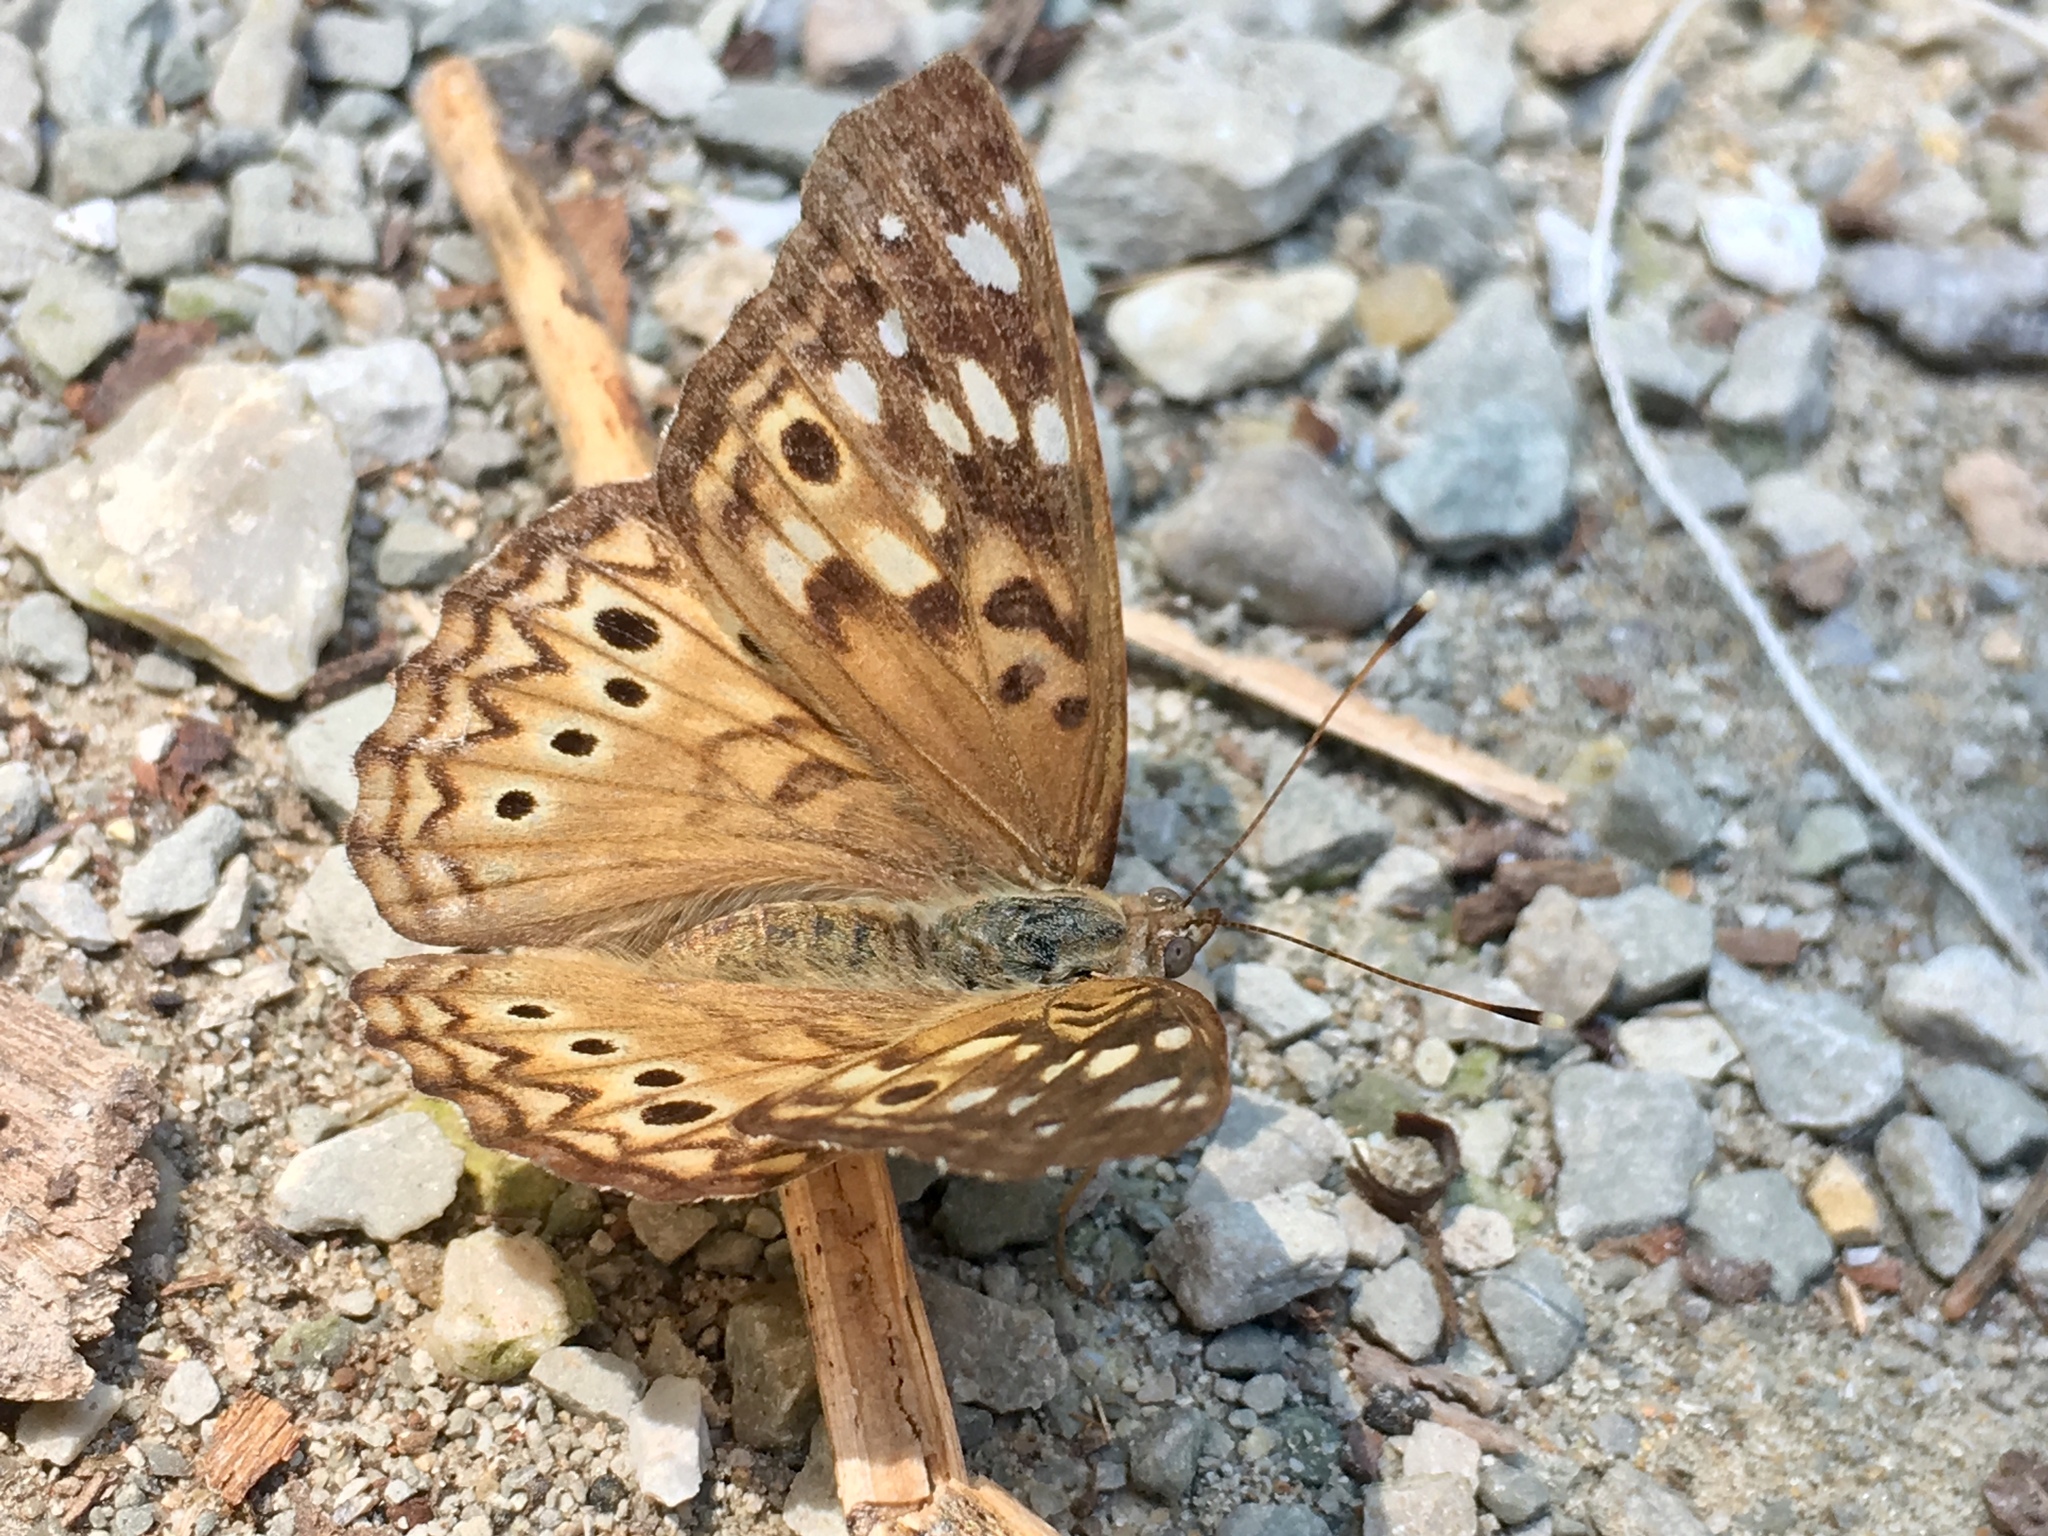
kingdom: Animalia
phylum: Arthropoda
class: Insecta
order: Lepidoptera
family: Nymphalidae
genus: Asterocampa
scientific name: Asterocampa celtis
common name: Hackberry emperor
